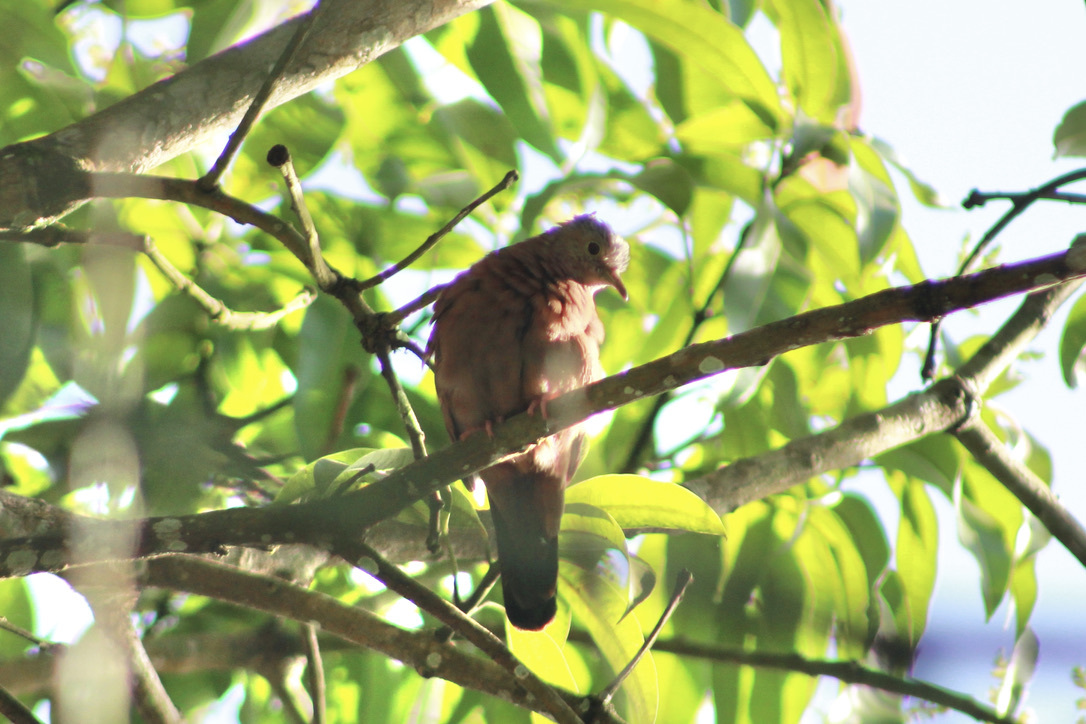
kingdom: Animalia
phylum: Chordata
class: Aves
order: Columbiformes
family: Columbidae
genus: Columbina
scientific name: Columbina talpacoti
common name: Ruddy ground dove
